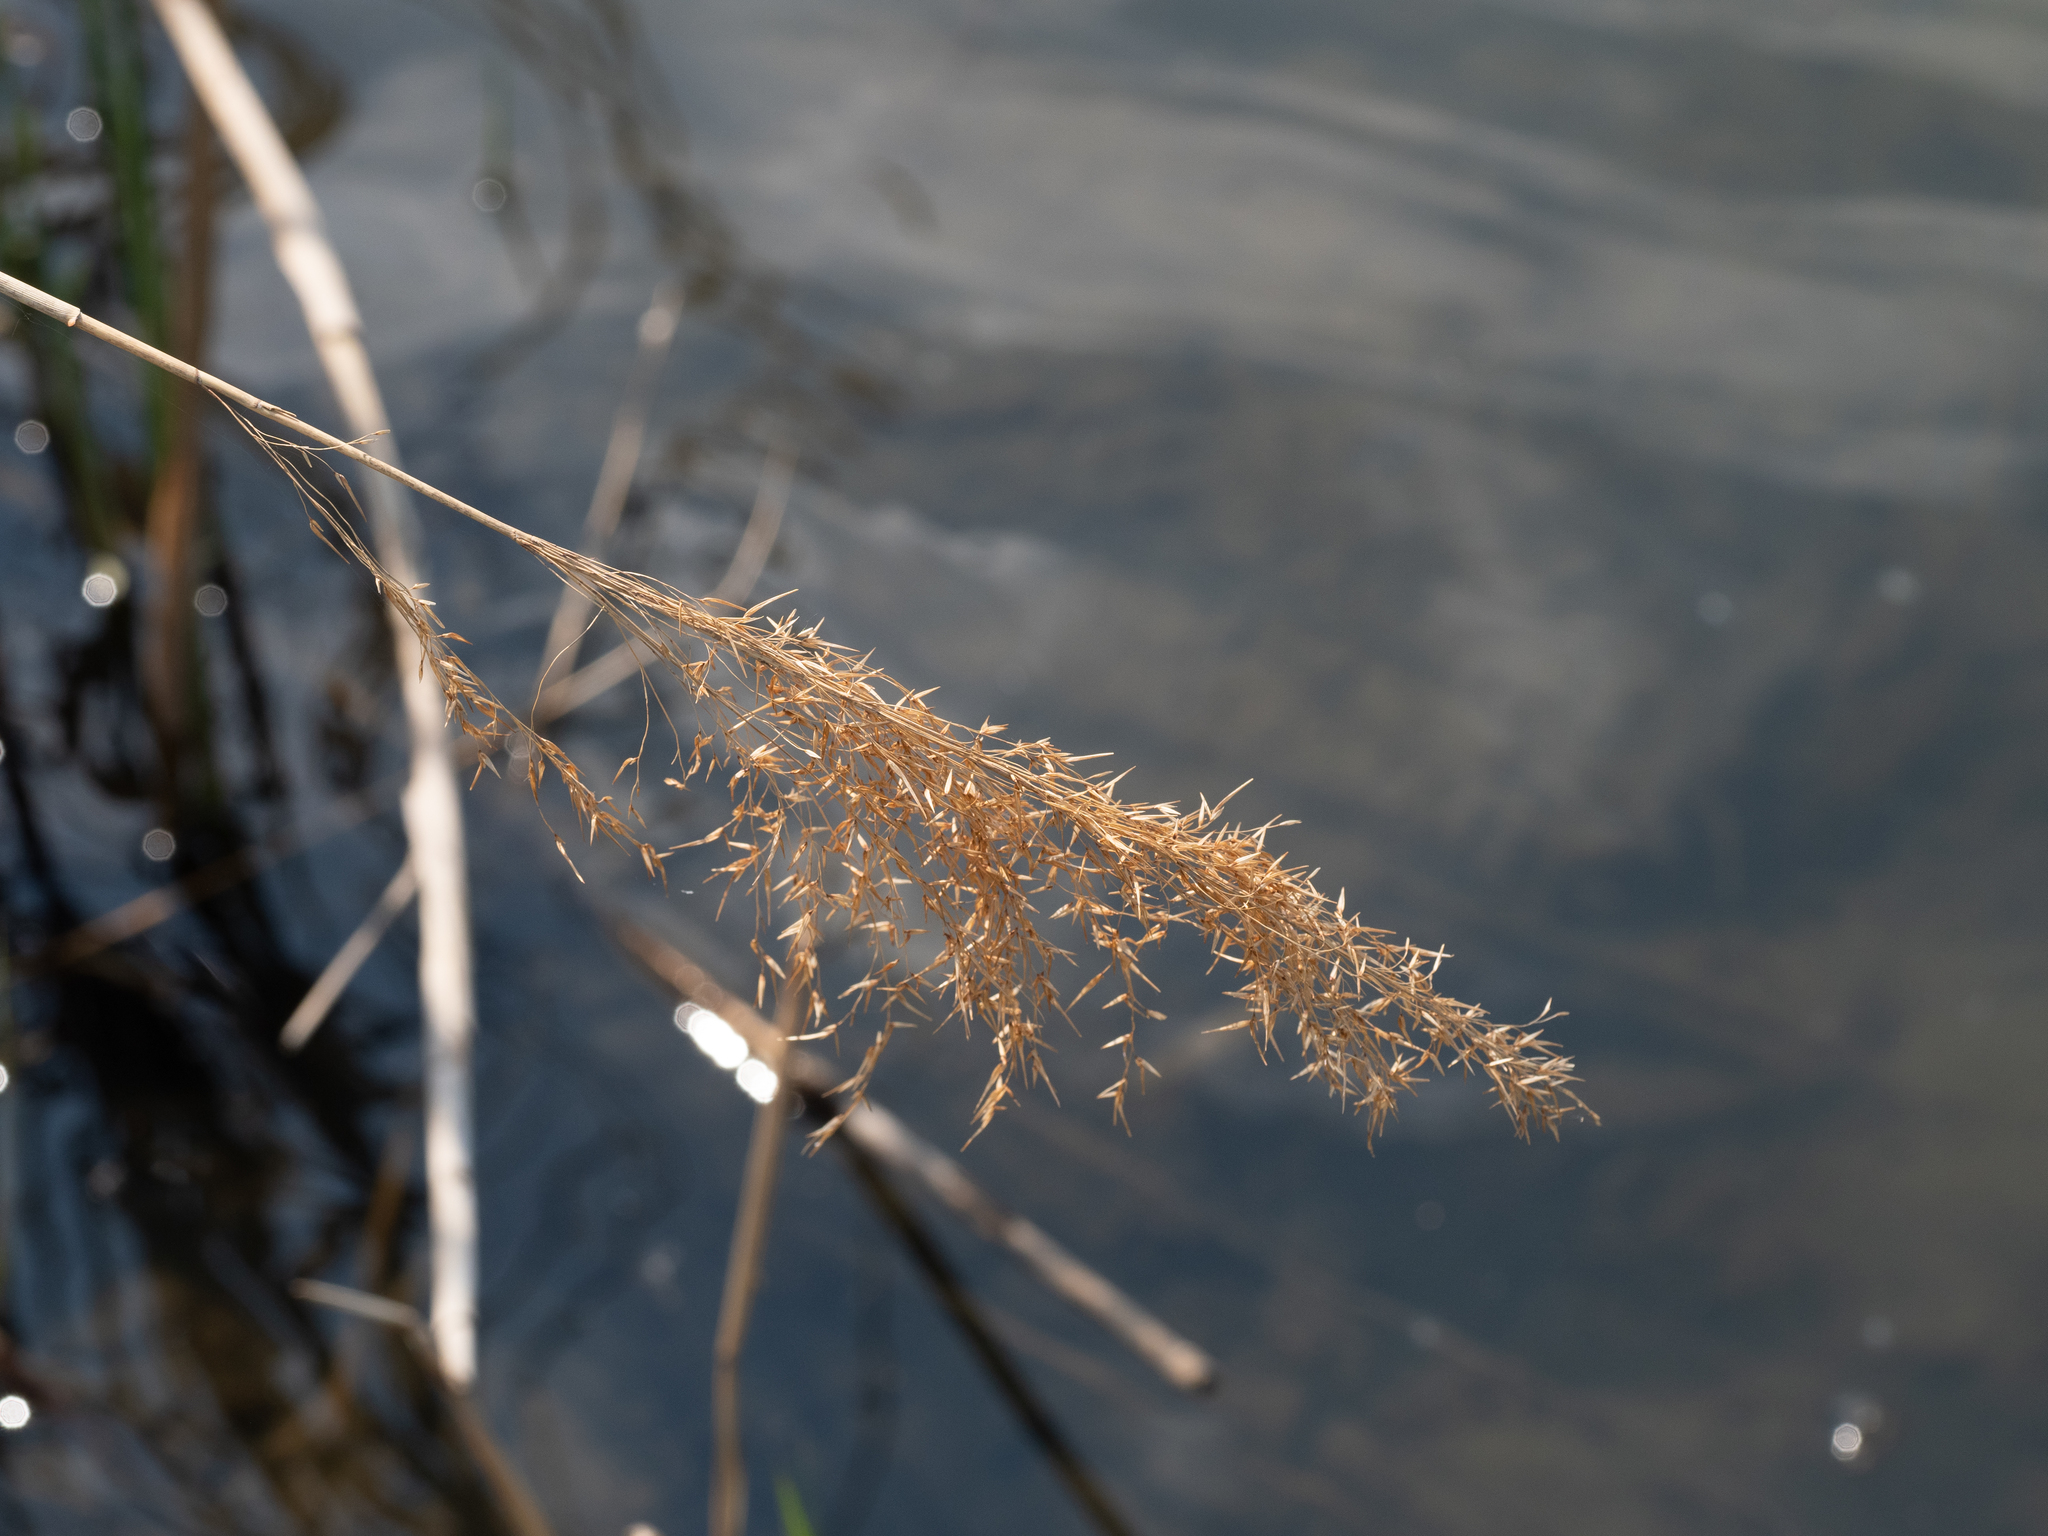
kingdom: Plantae
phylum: Tracheophyta
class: Liliopsida
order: Poales
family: Poaceae
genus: Phragmites
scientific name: Phragmites australis
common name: Common reed
